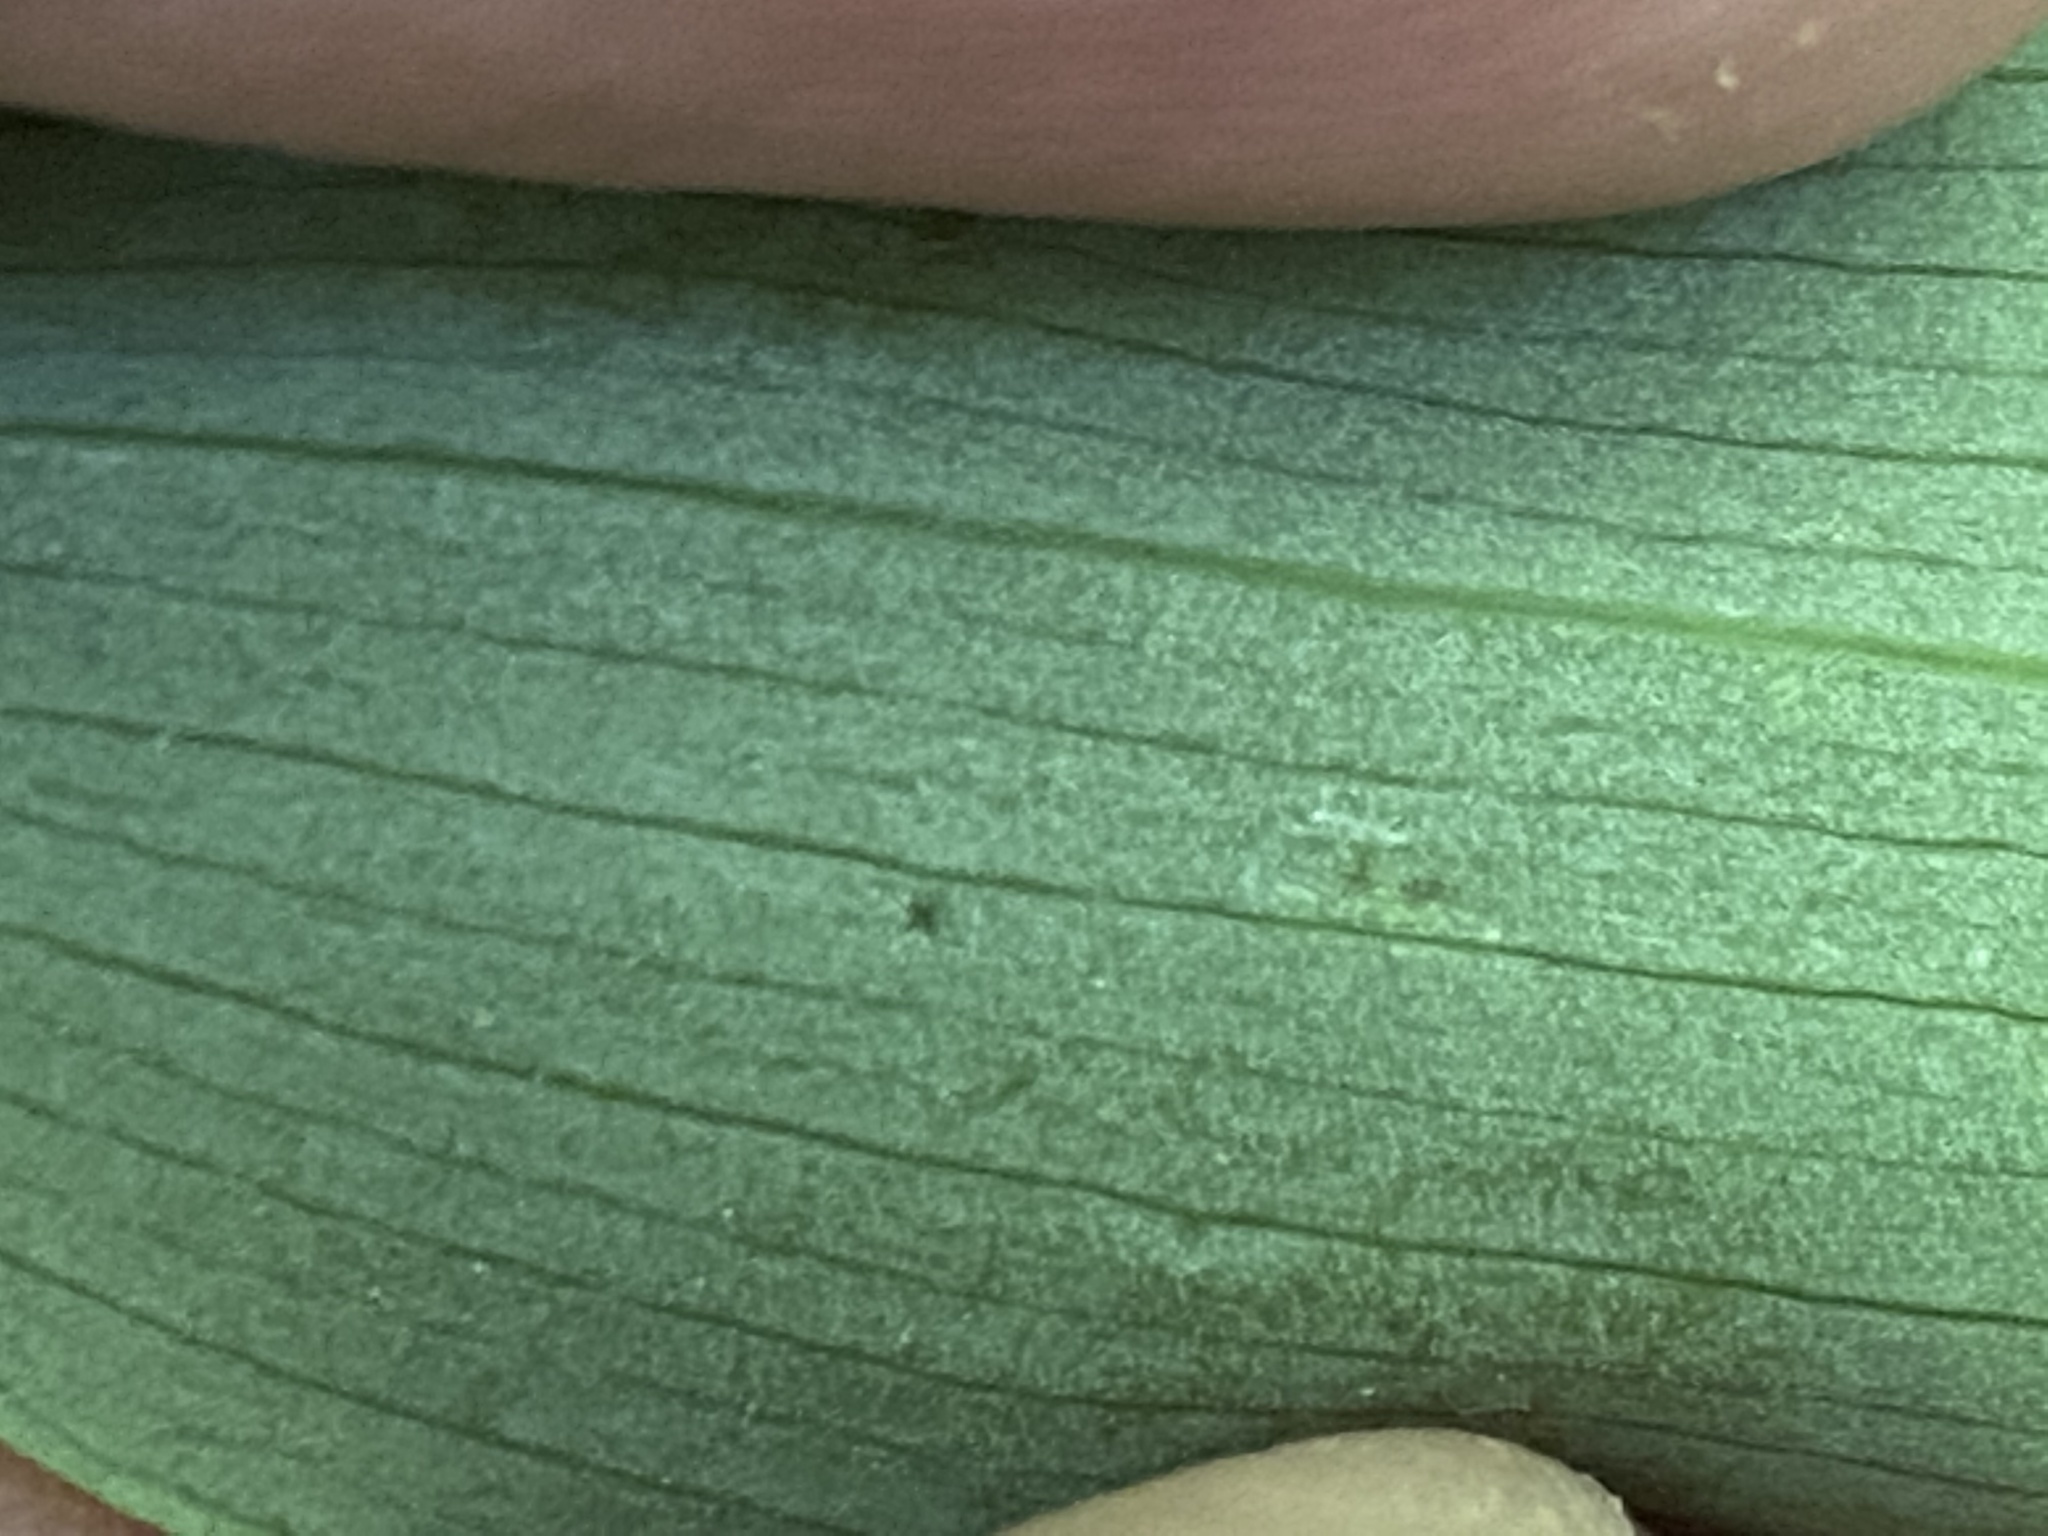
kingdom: Plantae
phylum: Tracheophyta
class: Liliopsida
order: Liliales
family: Colchicaceae
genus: Uvularia
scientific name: Uvularia perfoliata
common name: Perfoliate bellwort
